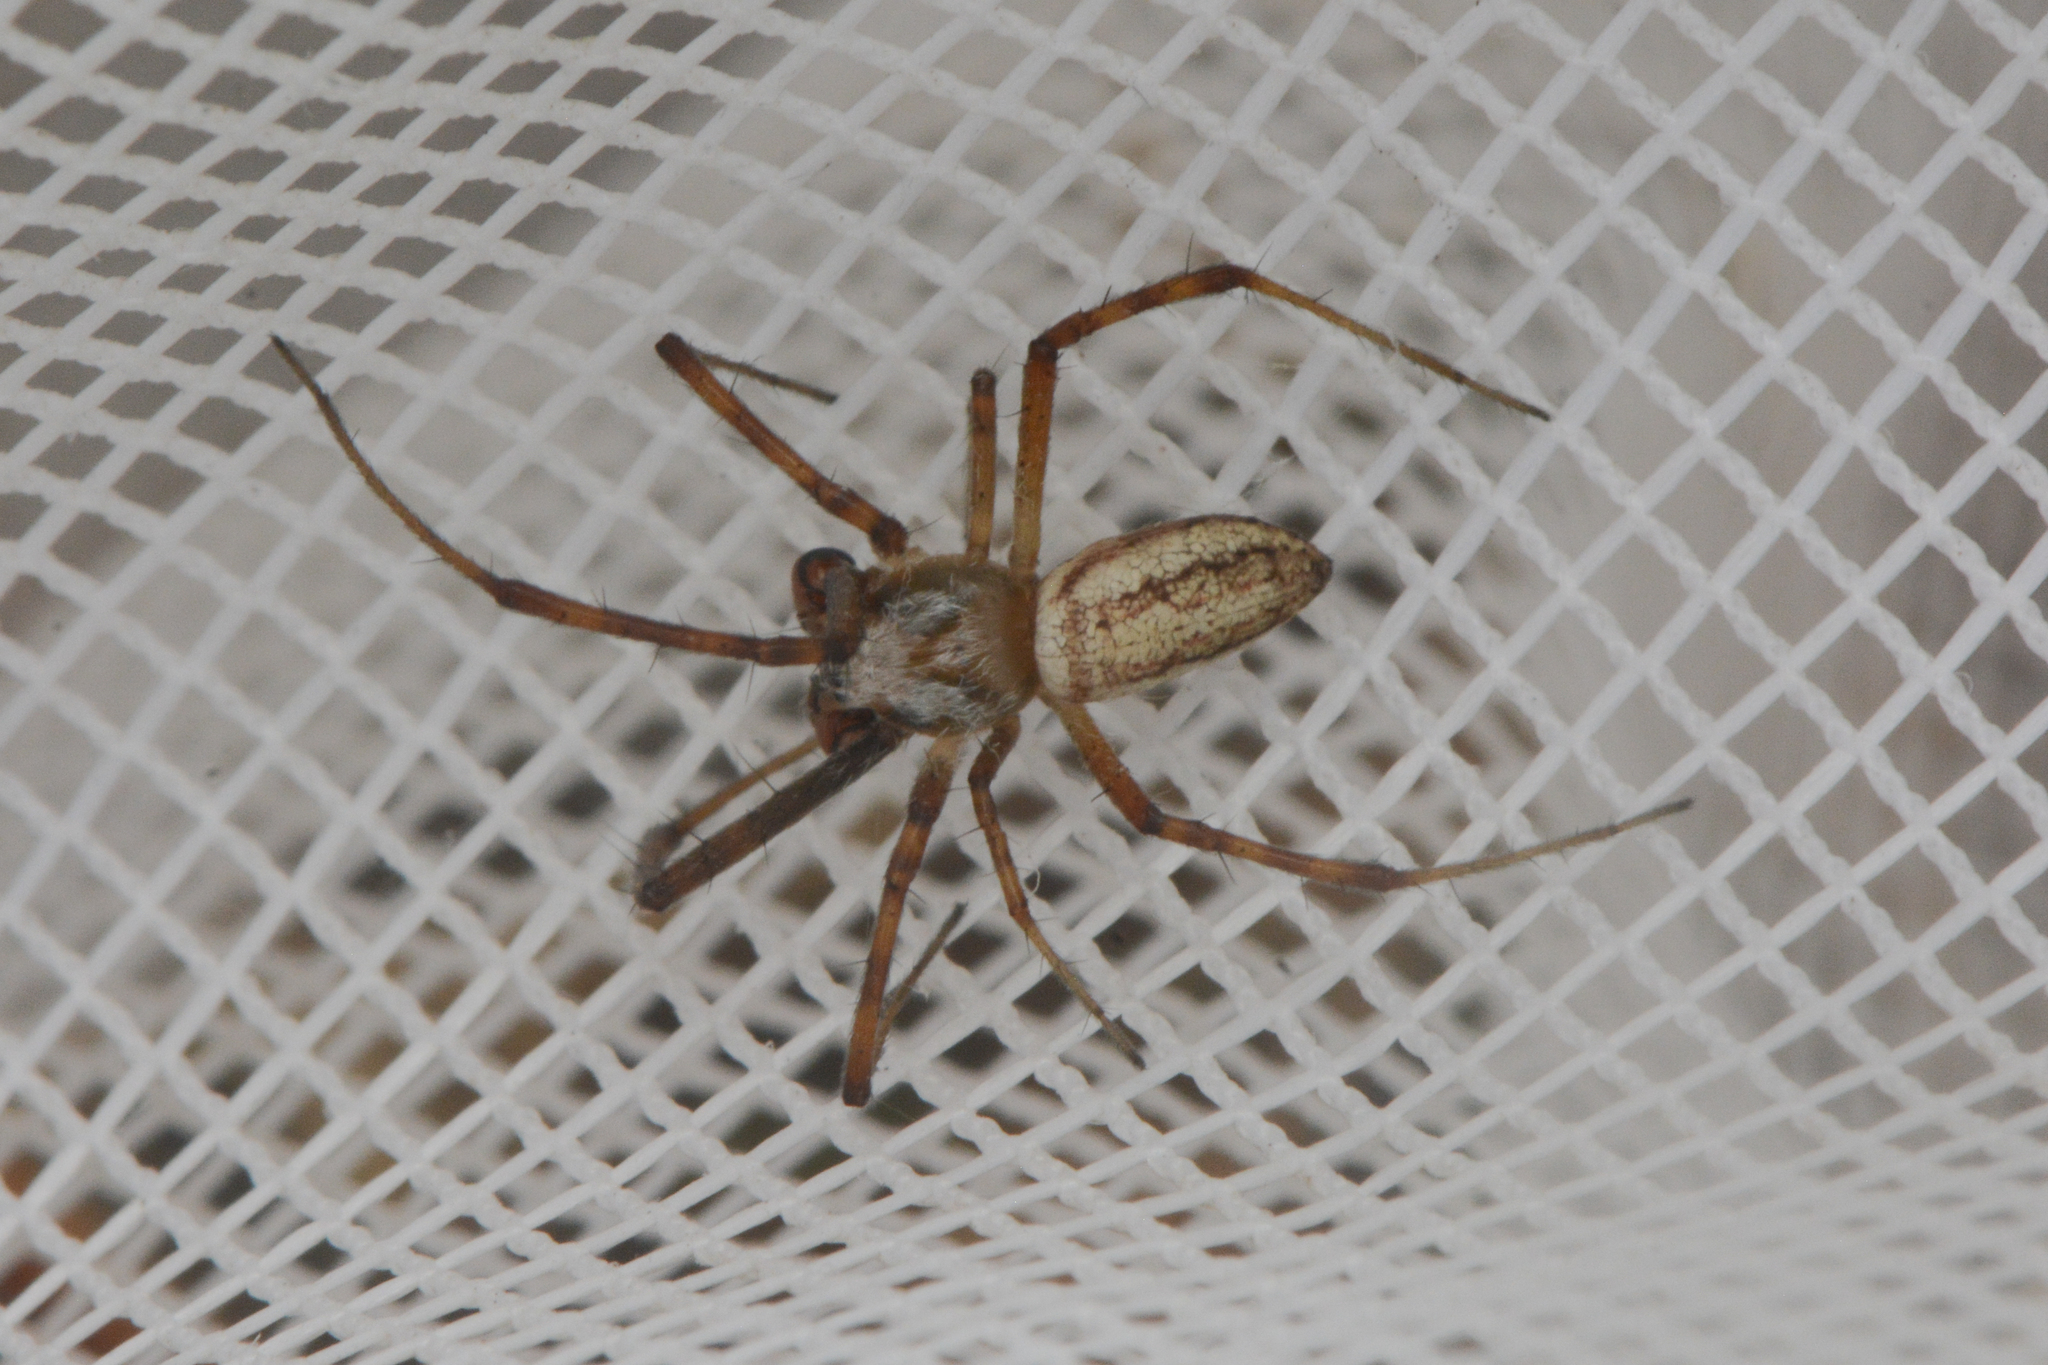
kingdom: Animalia
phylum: Arthropoda
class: Arachnida
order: Araneae
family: Araneidae
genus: Argiope
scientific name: Argiope trifasciata
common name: Banded garden spider
